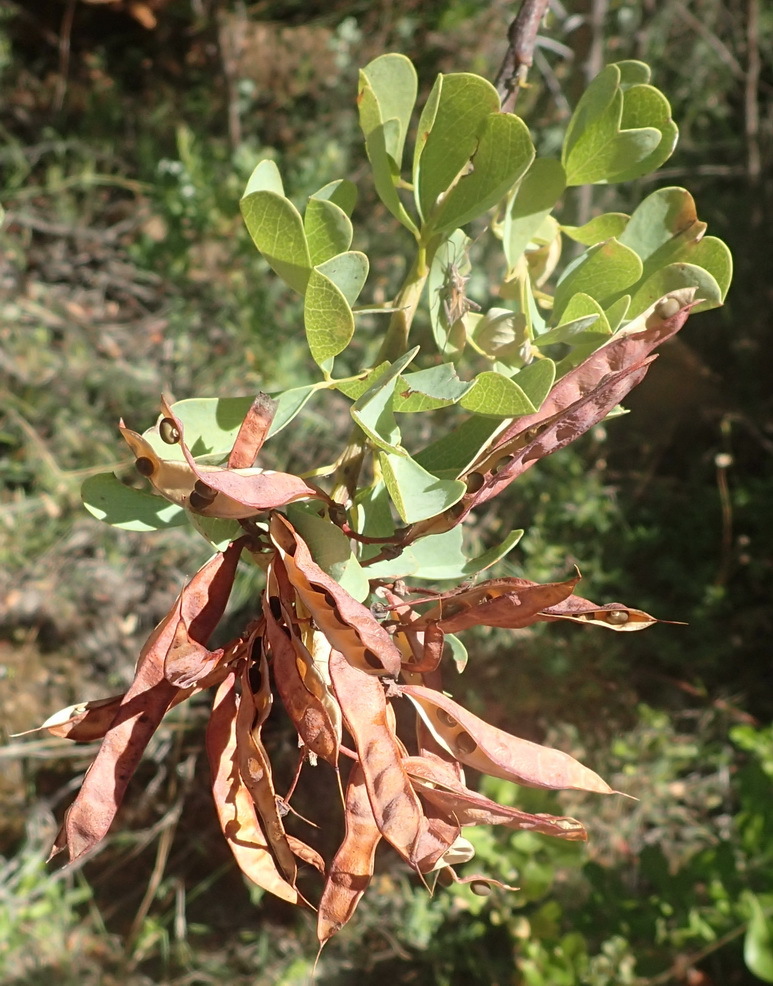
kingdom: Plantae
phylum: Tracheophyta
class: Magnoliopsida
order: Fabales
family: Fabaceae
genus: Hypocalyptus
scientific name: Hypocalyptus sophoroides
